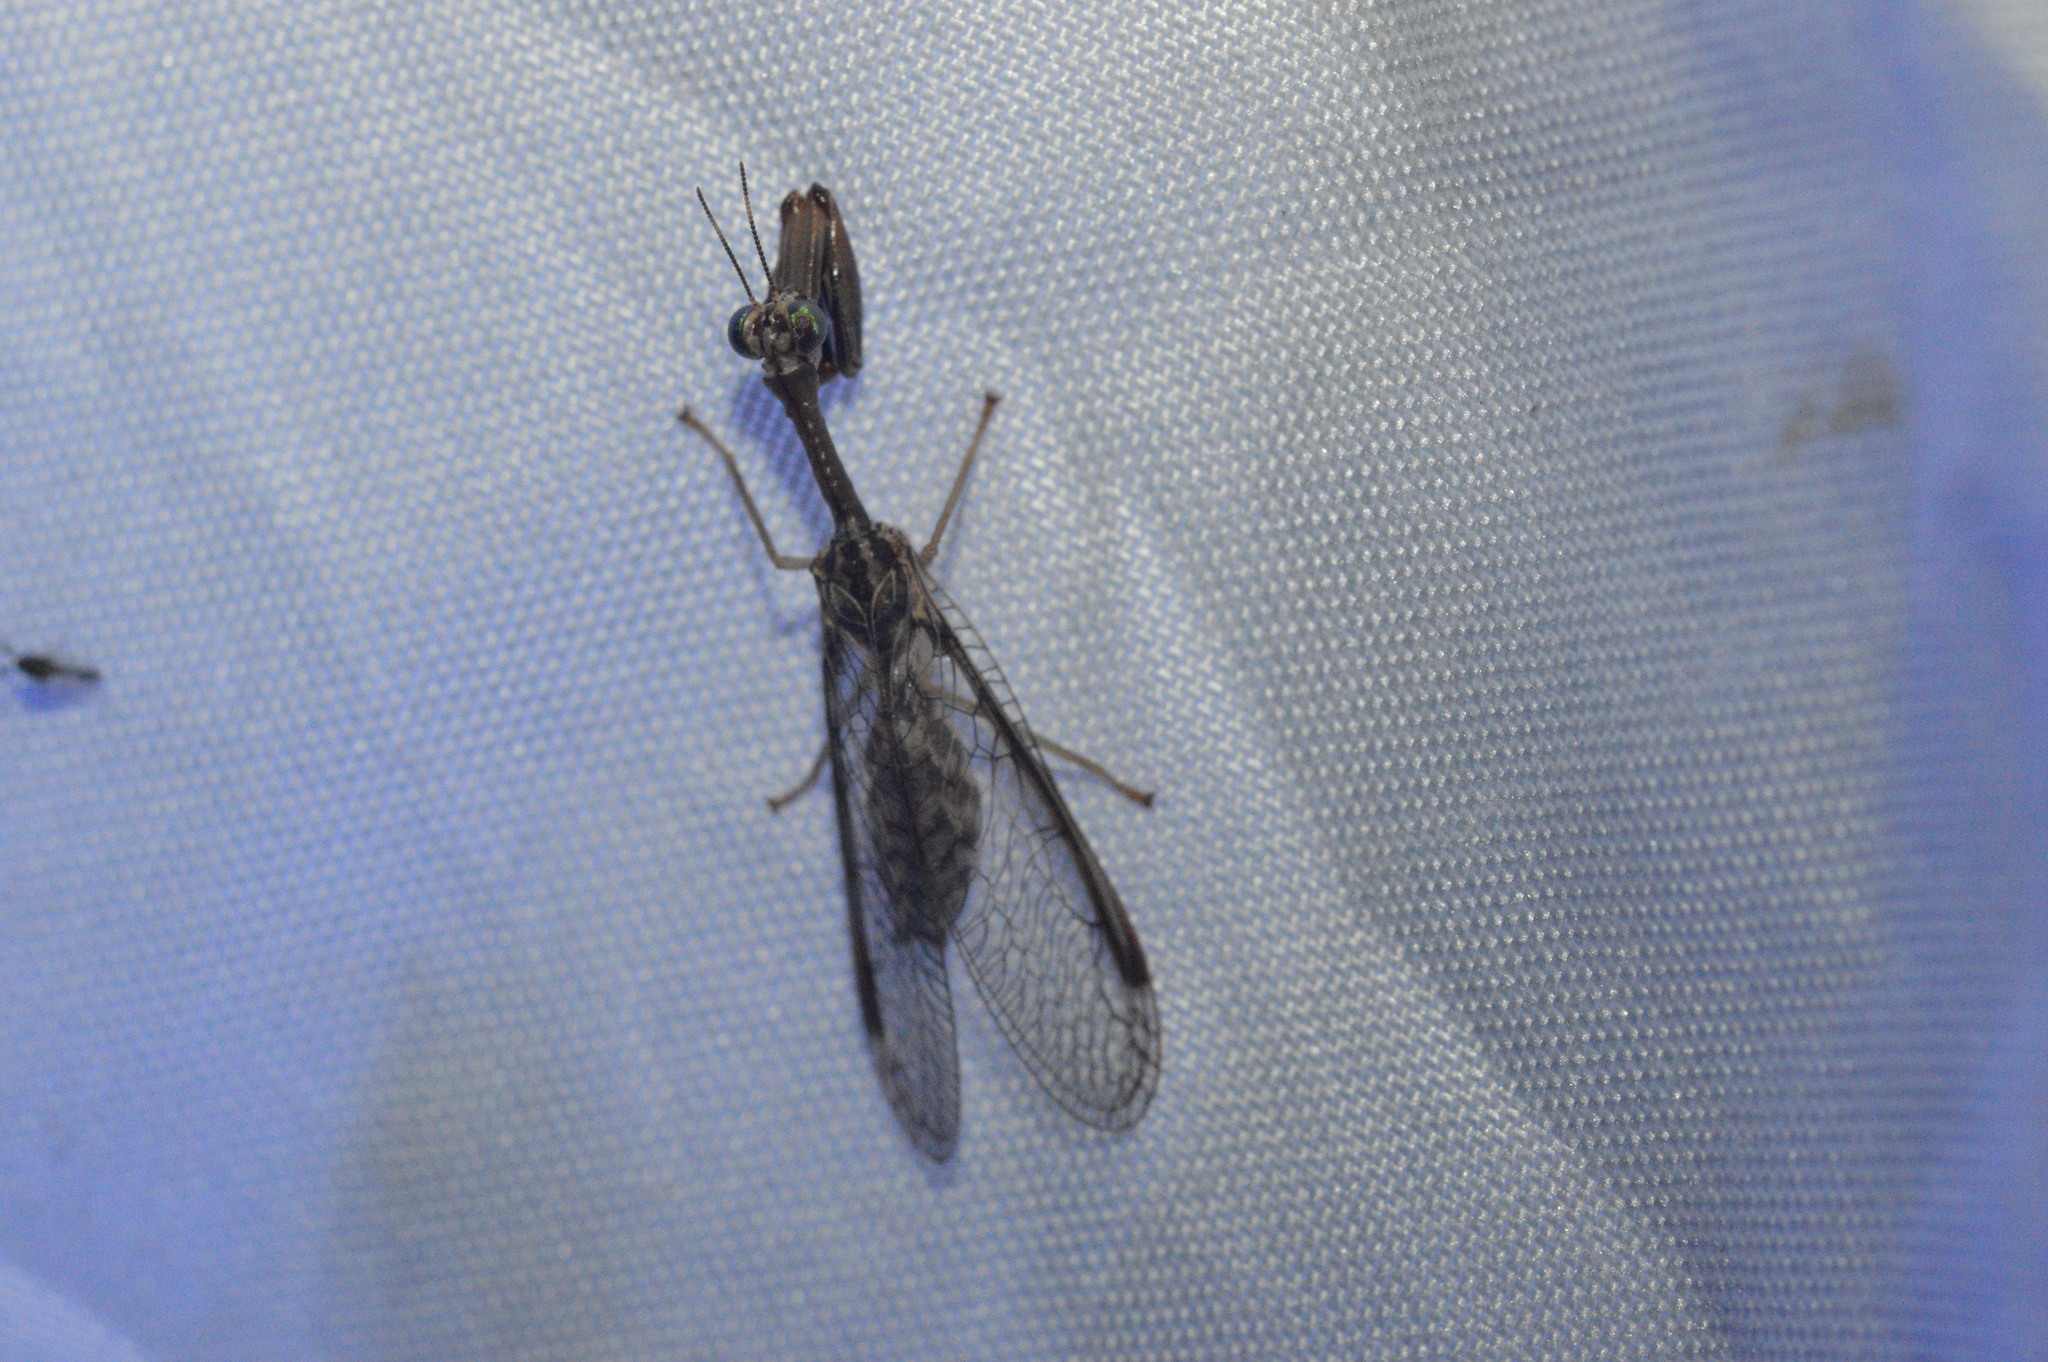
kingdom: Animalia
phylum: Arthropoda
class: Insecta
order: Neuroptera
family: Mantispidae
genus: Dicromantispa
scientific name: Dicromantispa sayi
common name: Say's mantidfly
